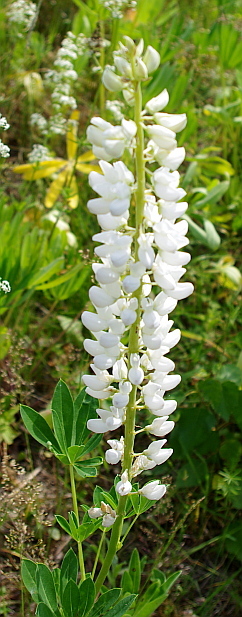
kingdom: Plantae
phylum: Tracheophyta
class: Magnoliopsida
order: Fabales
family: Fabaceae
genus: Lupinus
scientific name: Lupinus polyphyllus
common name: Garden lupin
